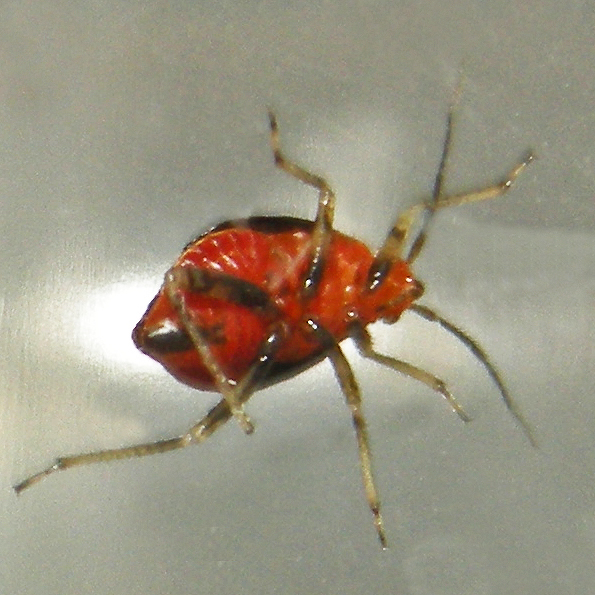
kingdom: Animalia
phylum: Arthropoda
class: Insecta
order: Hemiptera
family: Miridae
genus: Poecilocapsus
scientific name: Poecilocapsus lineatus
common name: Four-lined plant bug
